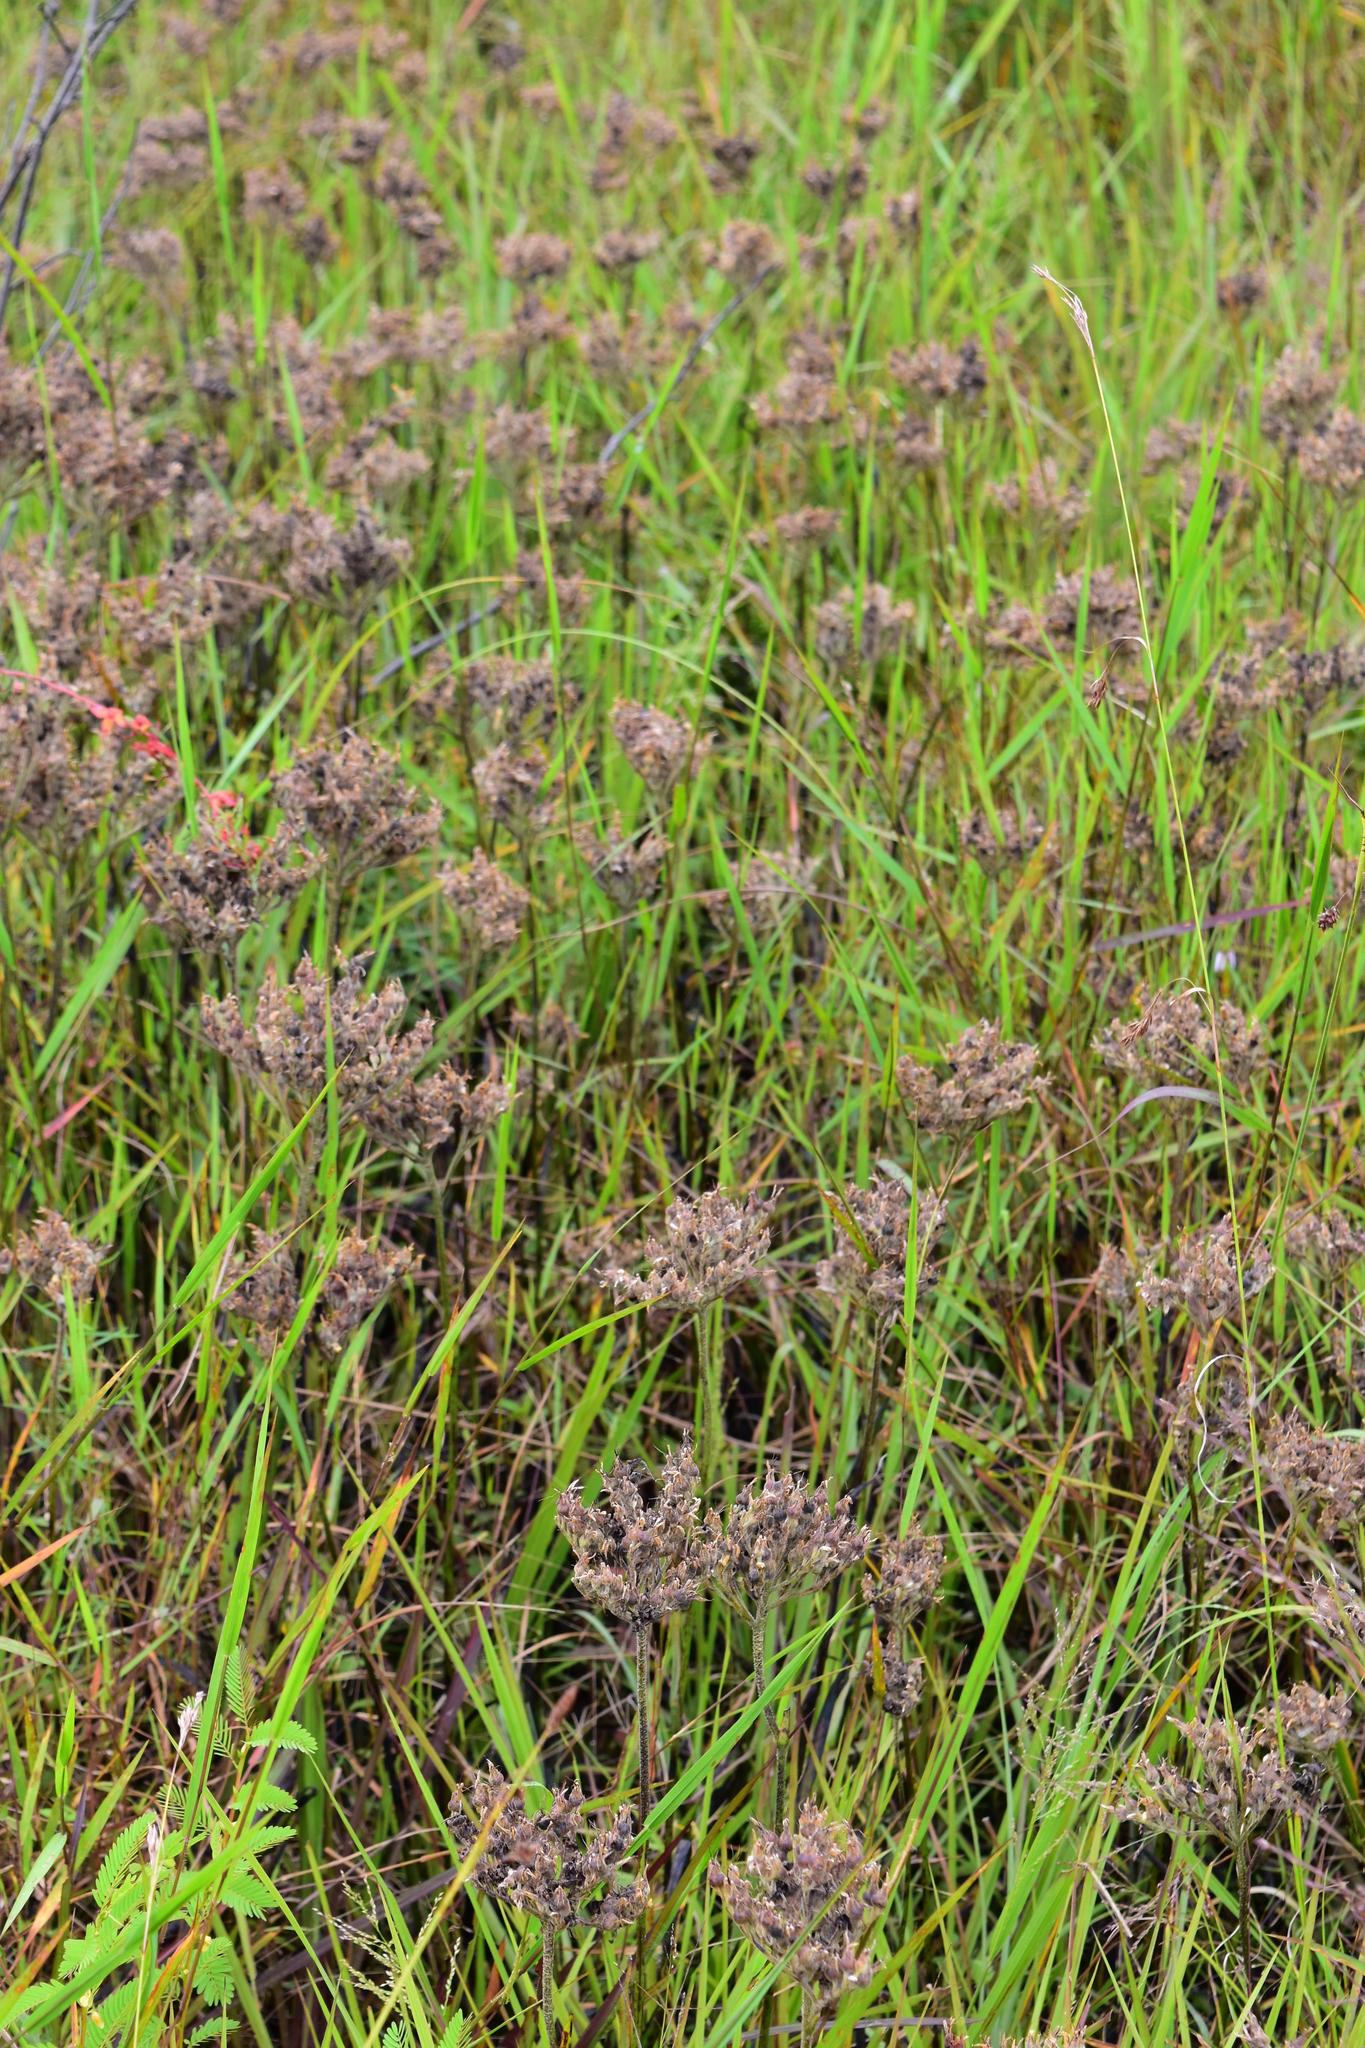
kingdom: Plantae
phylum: Tracheophyta
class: Liliopsida
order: Commelinales
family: Haemodoraceae
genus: Lachnanthes
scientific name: Lachnanthes caroliana
